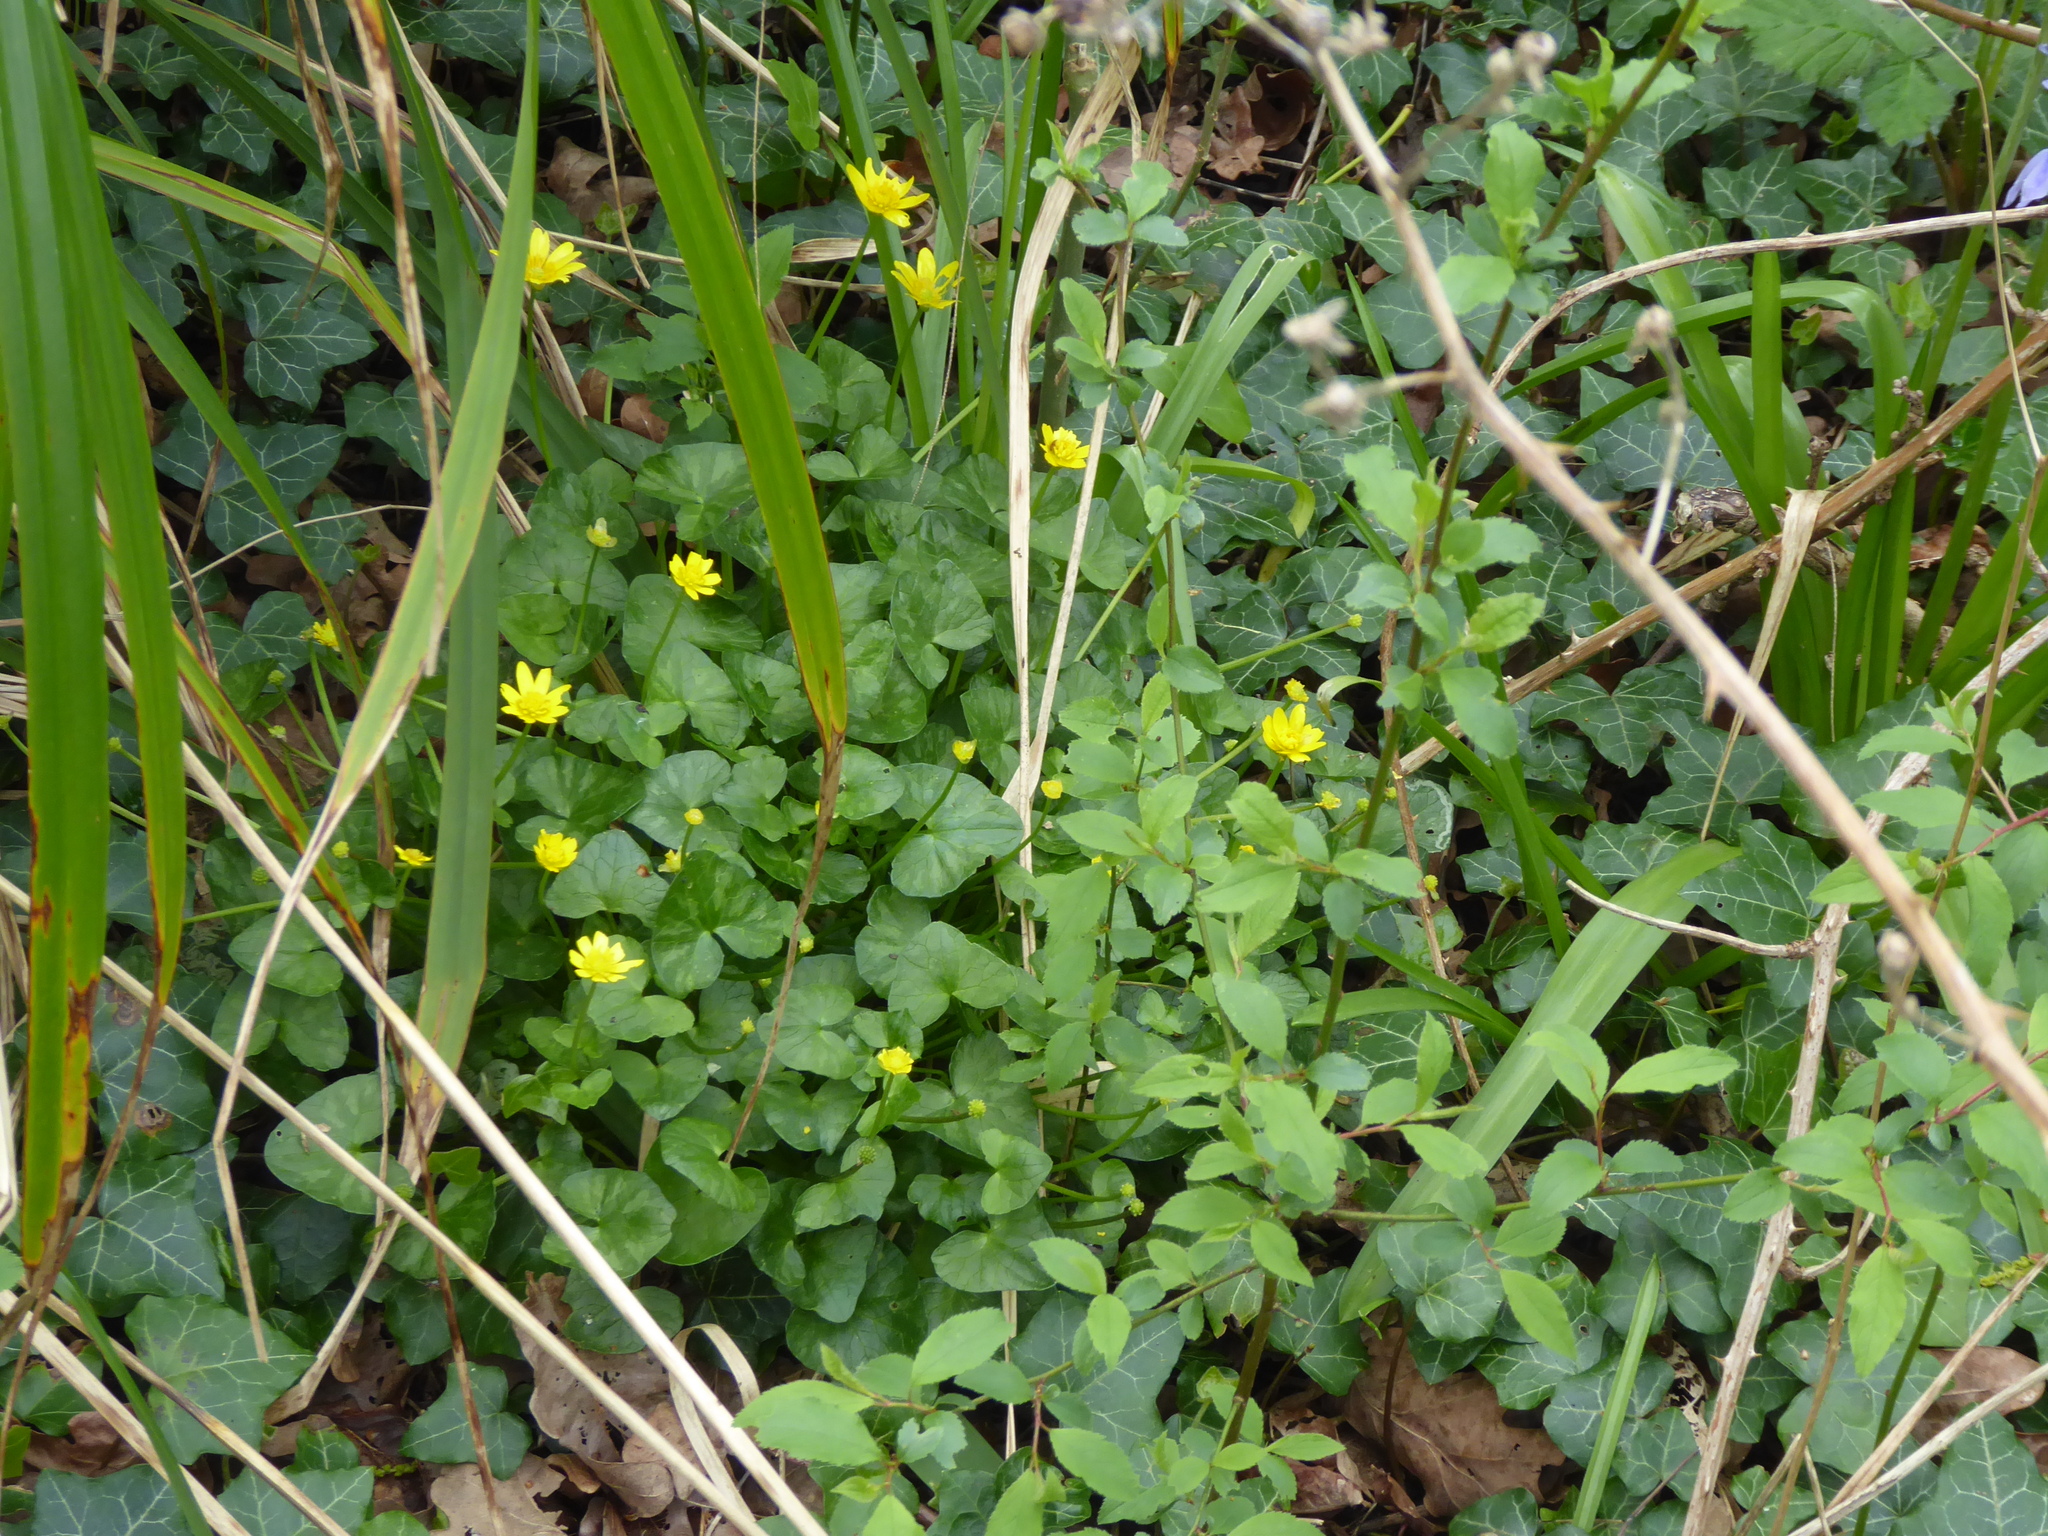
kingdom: Plantae
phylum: Tracheophyta
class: Magnoliopsida
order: Ranunculales
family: Ranunculaceae
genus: Ficaria
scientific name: Ficaria verna
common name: Lesser celandine
